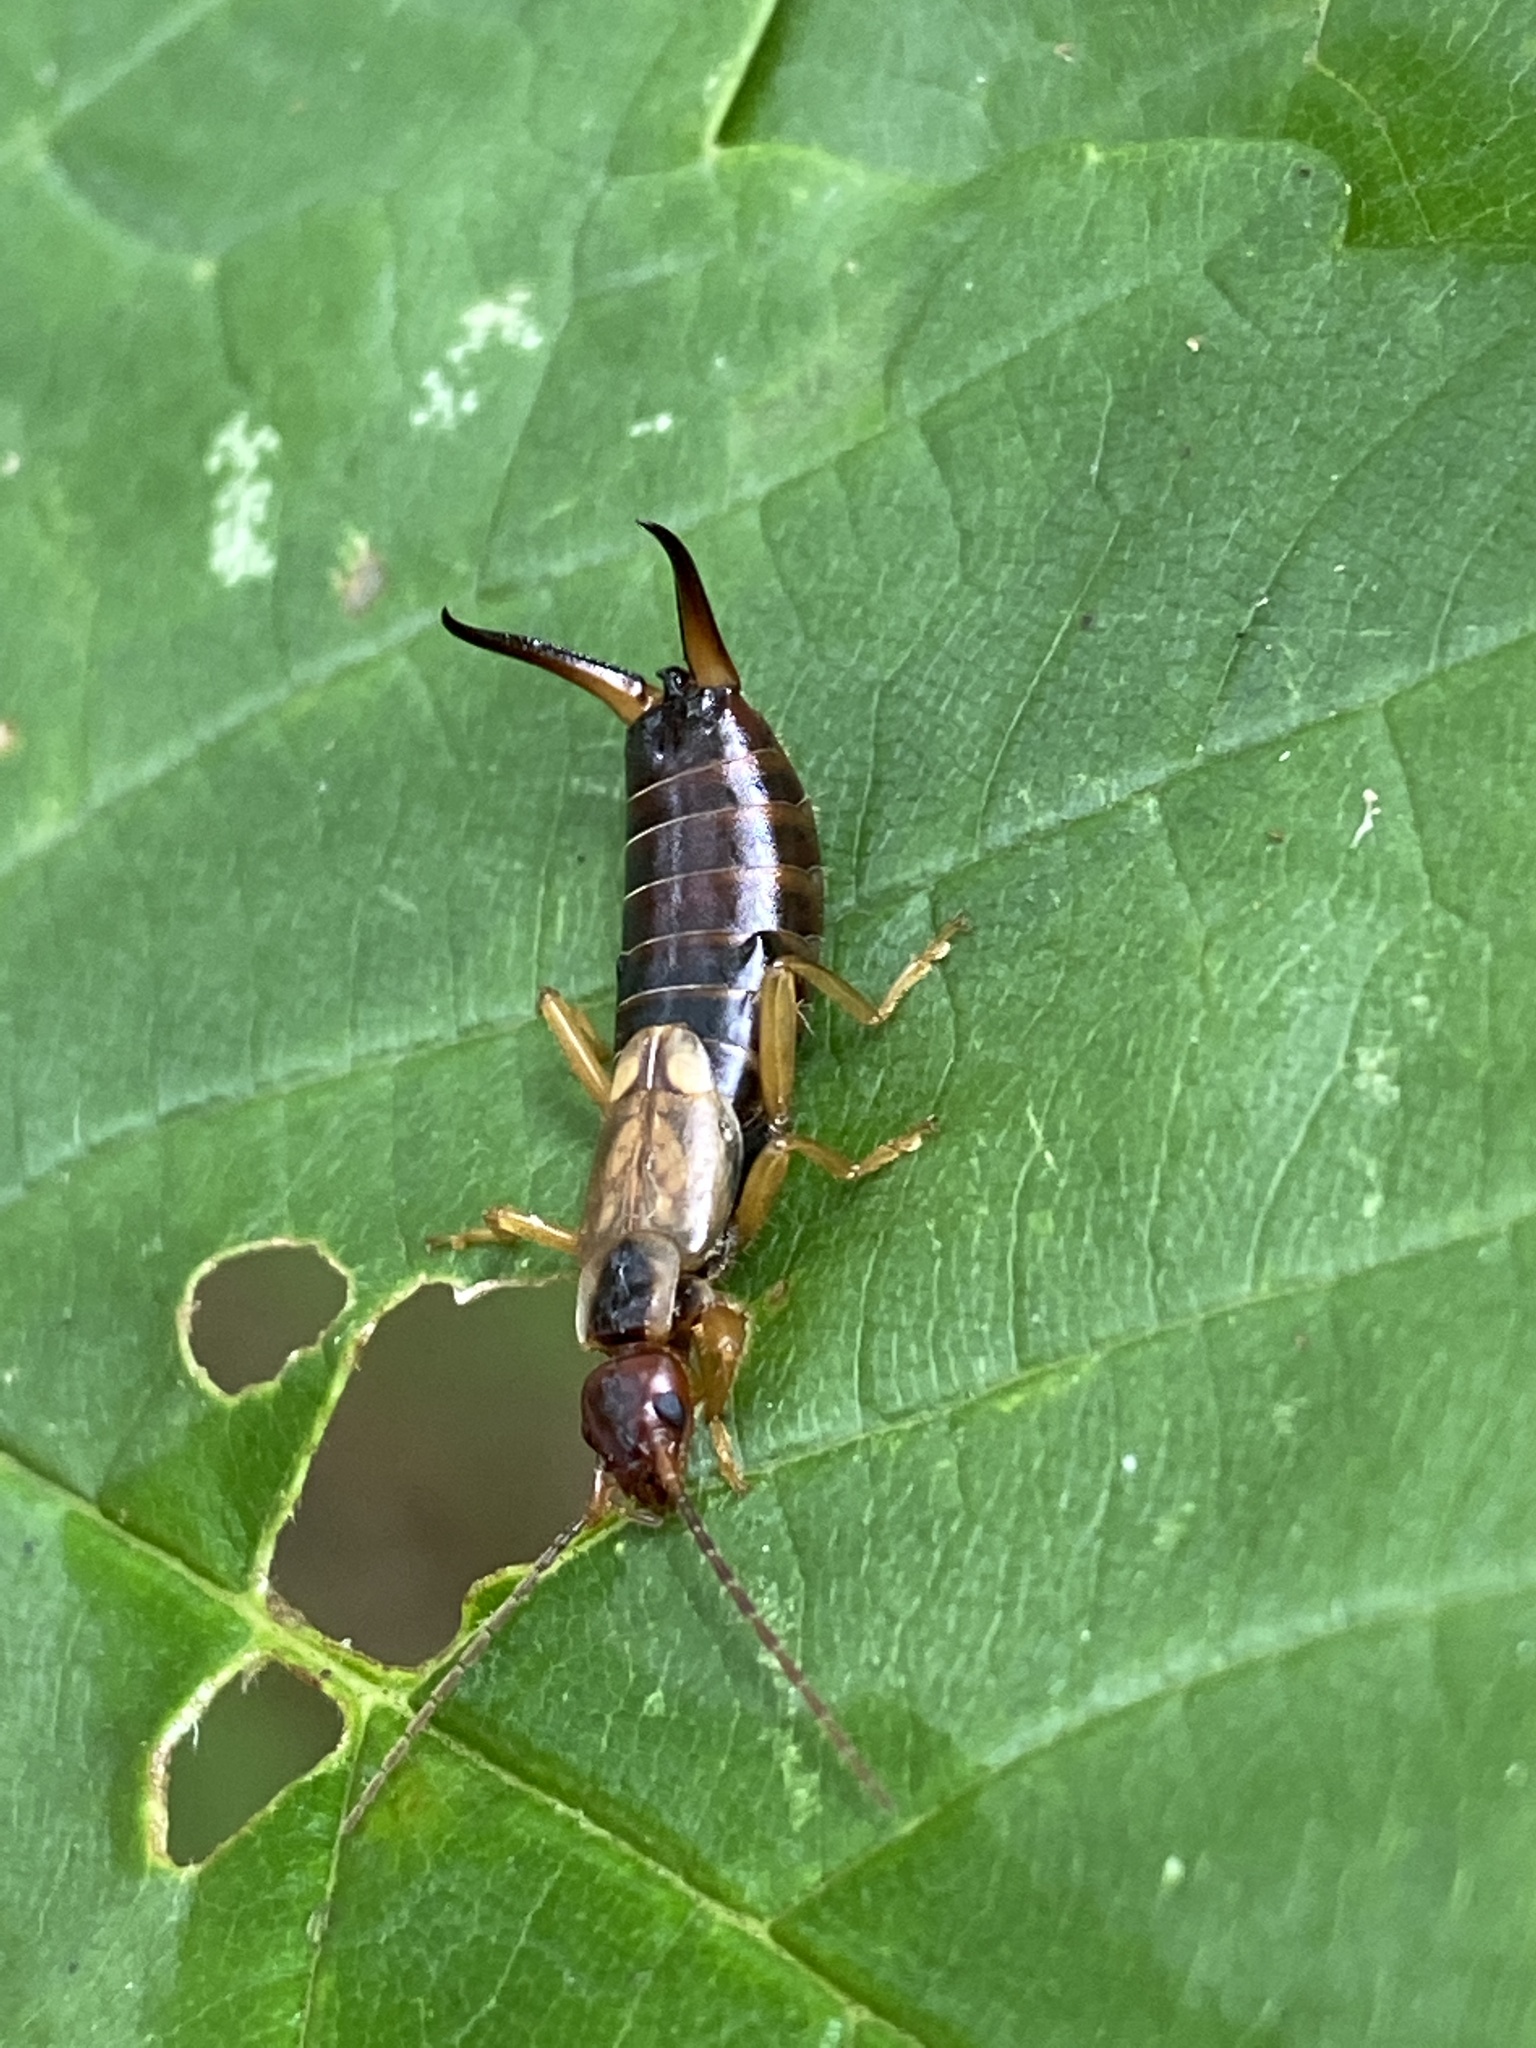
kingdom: Animalia
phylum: Arthropoda
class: Insecta
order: Dermaptera
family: Forficulidae
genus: Forficula
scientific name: Forficula
